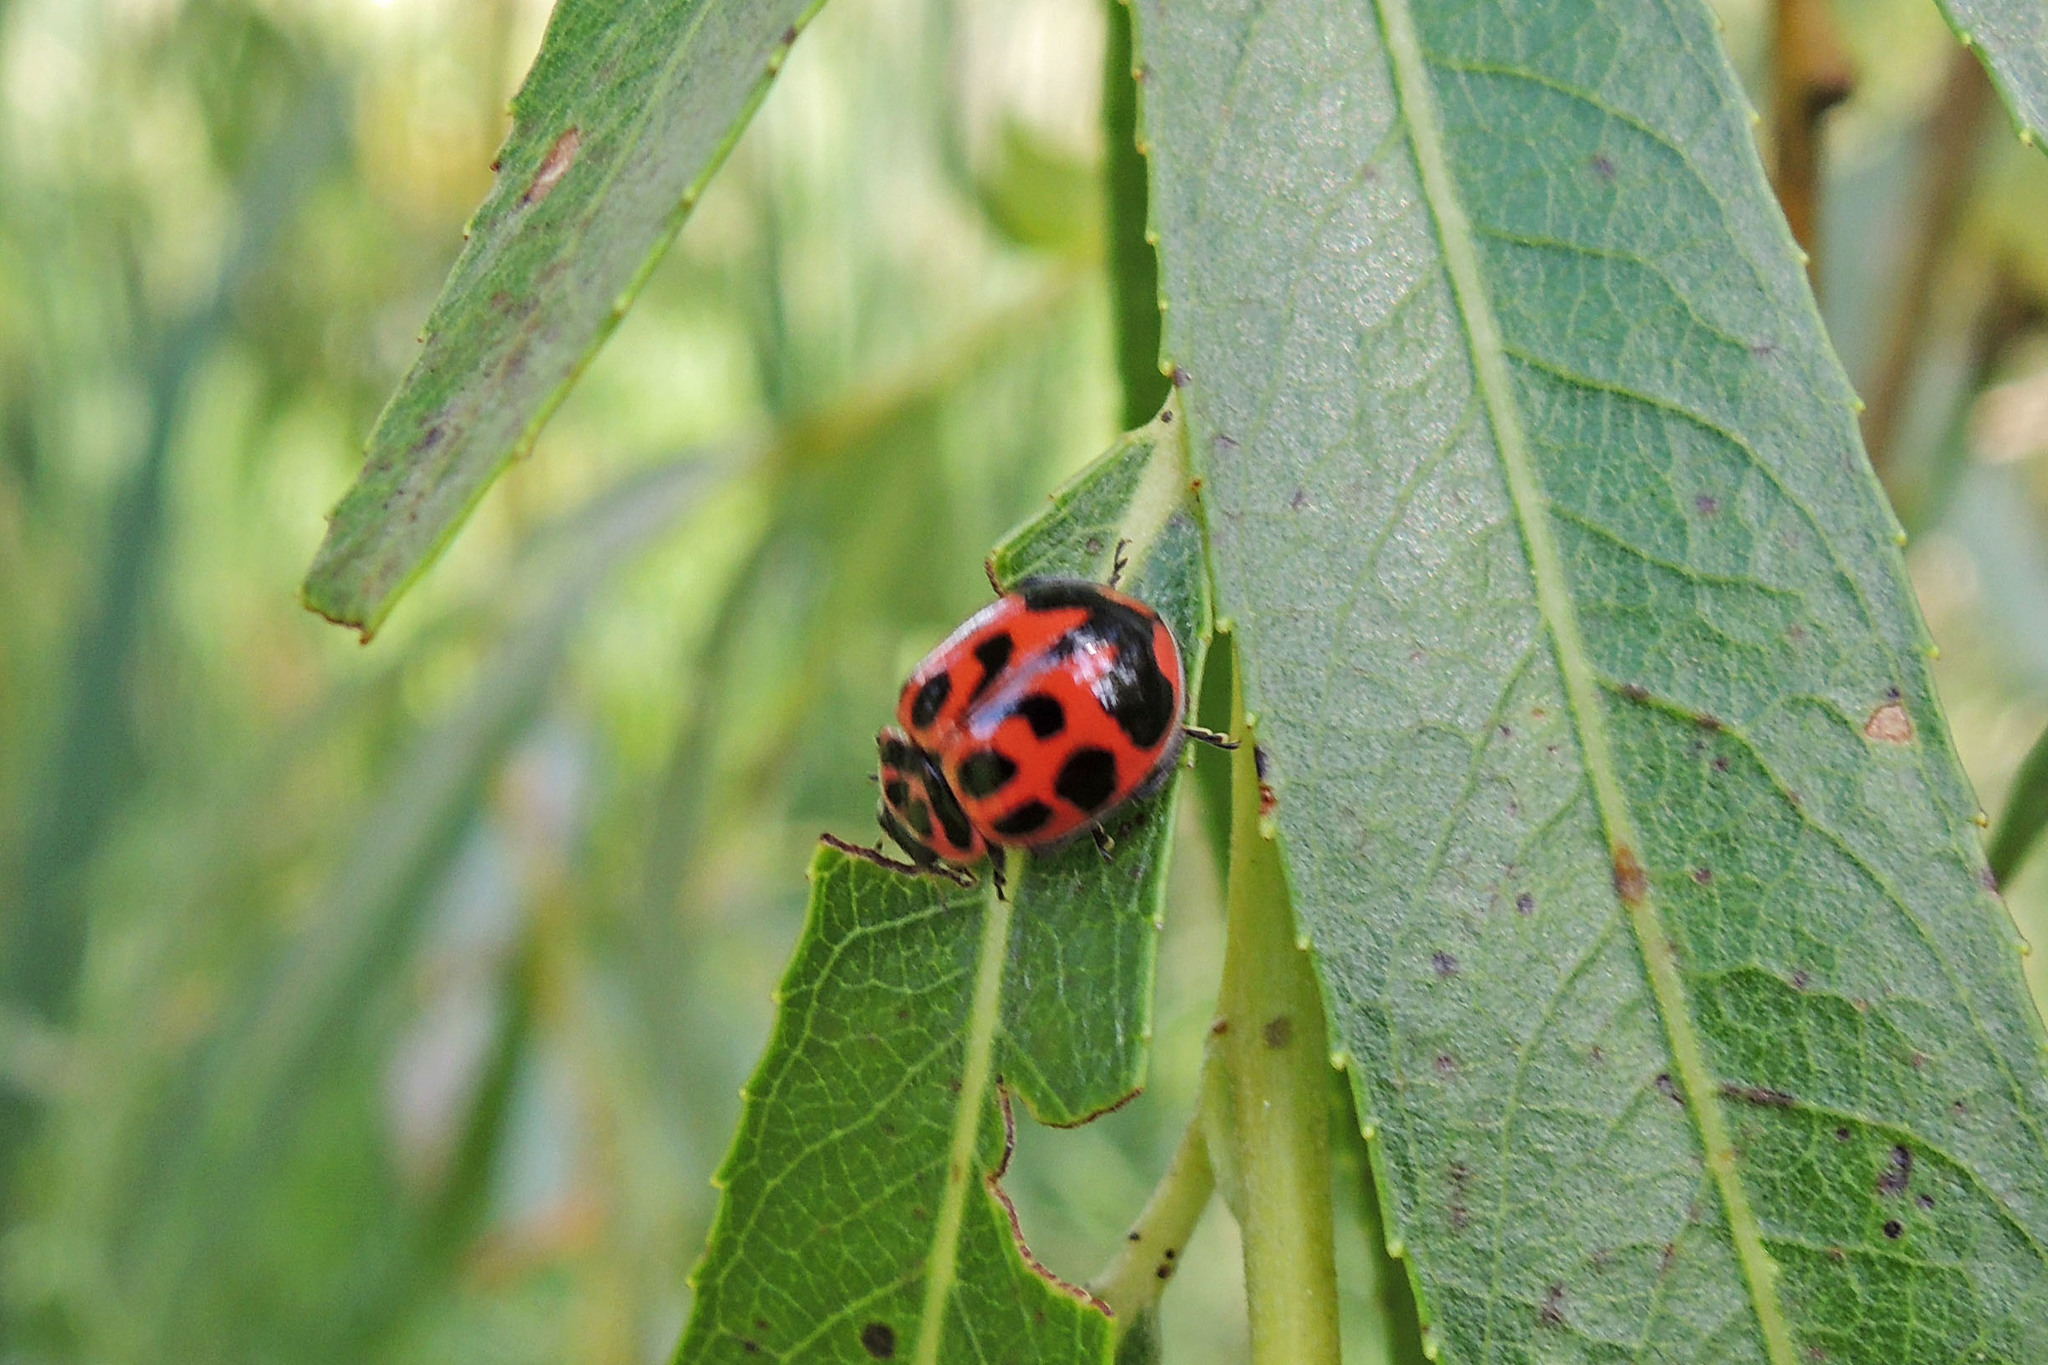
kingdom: Animalia
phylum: Arthropoda
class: Insecta
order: Coleoptera
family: Coccinellidae
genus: Neoharmonia
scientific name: Neoharmonia venusta
